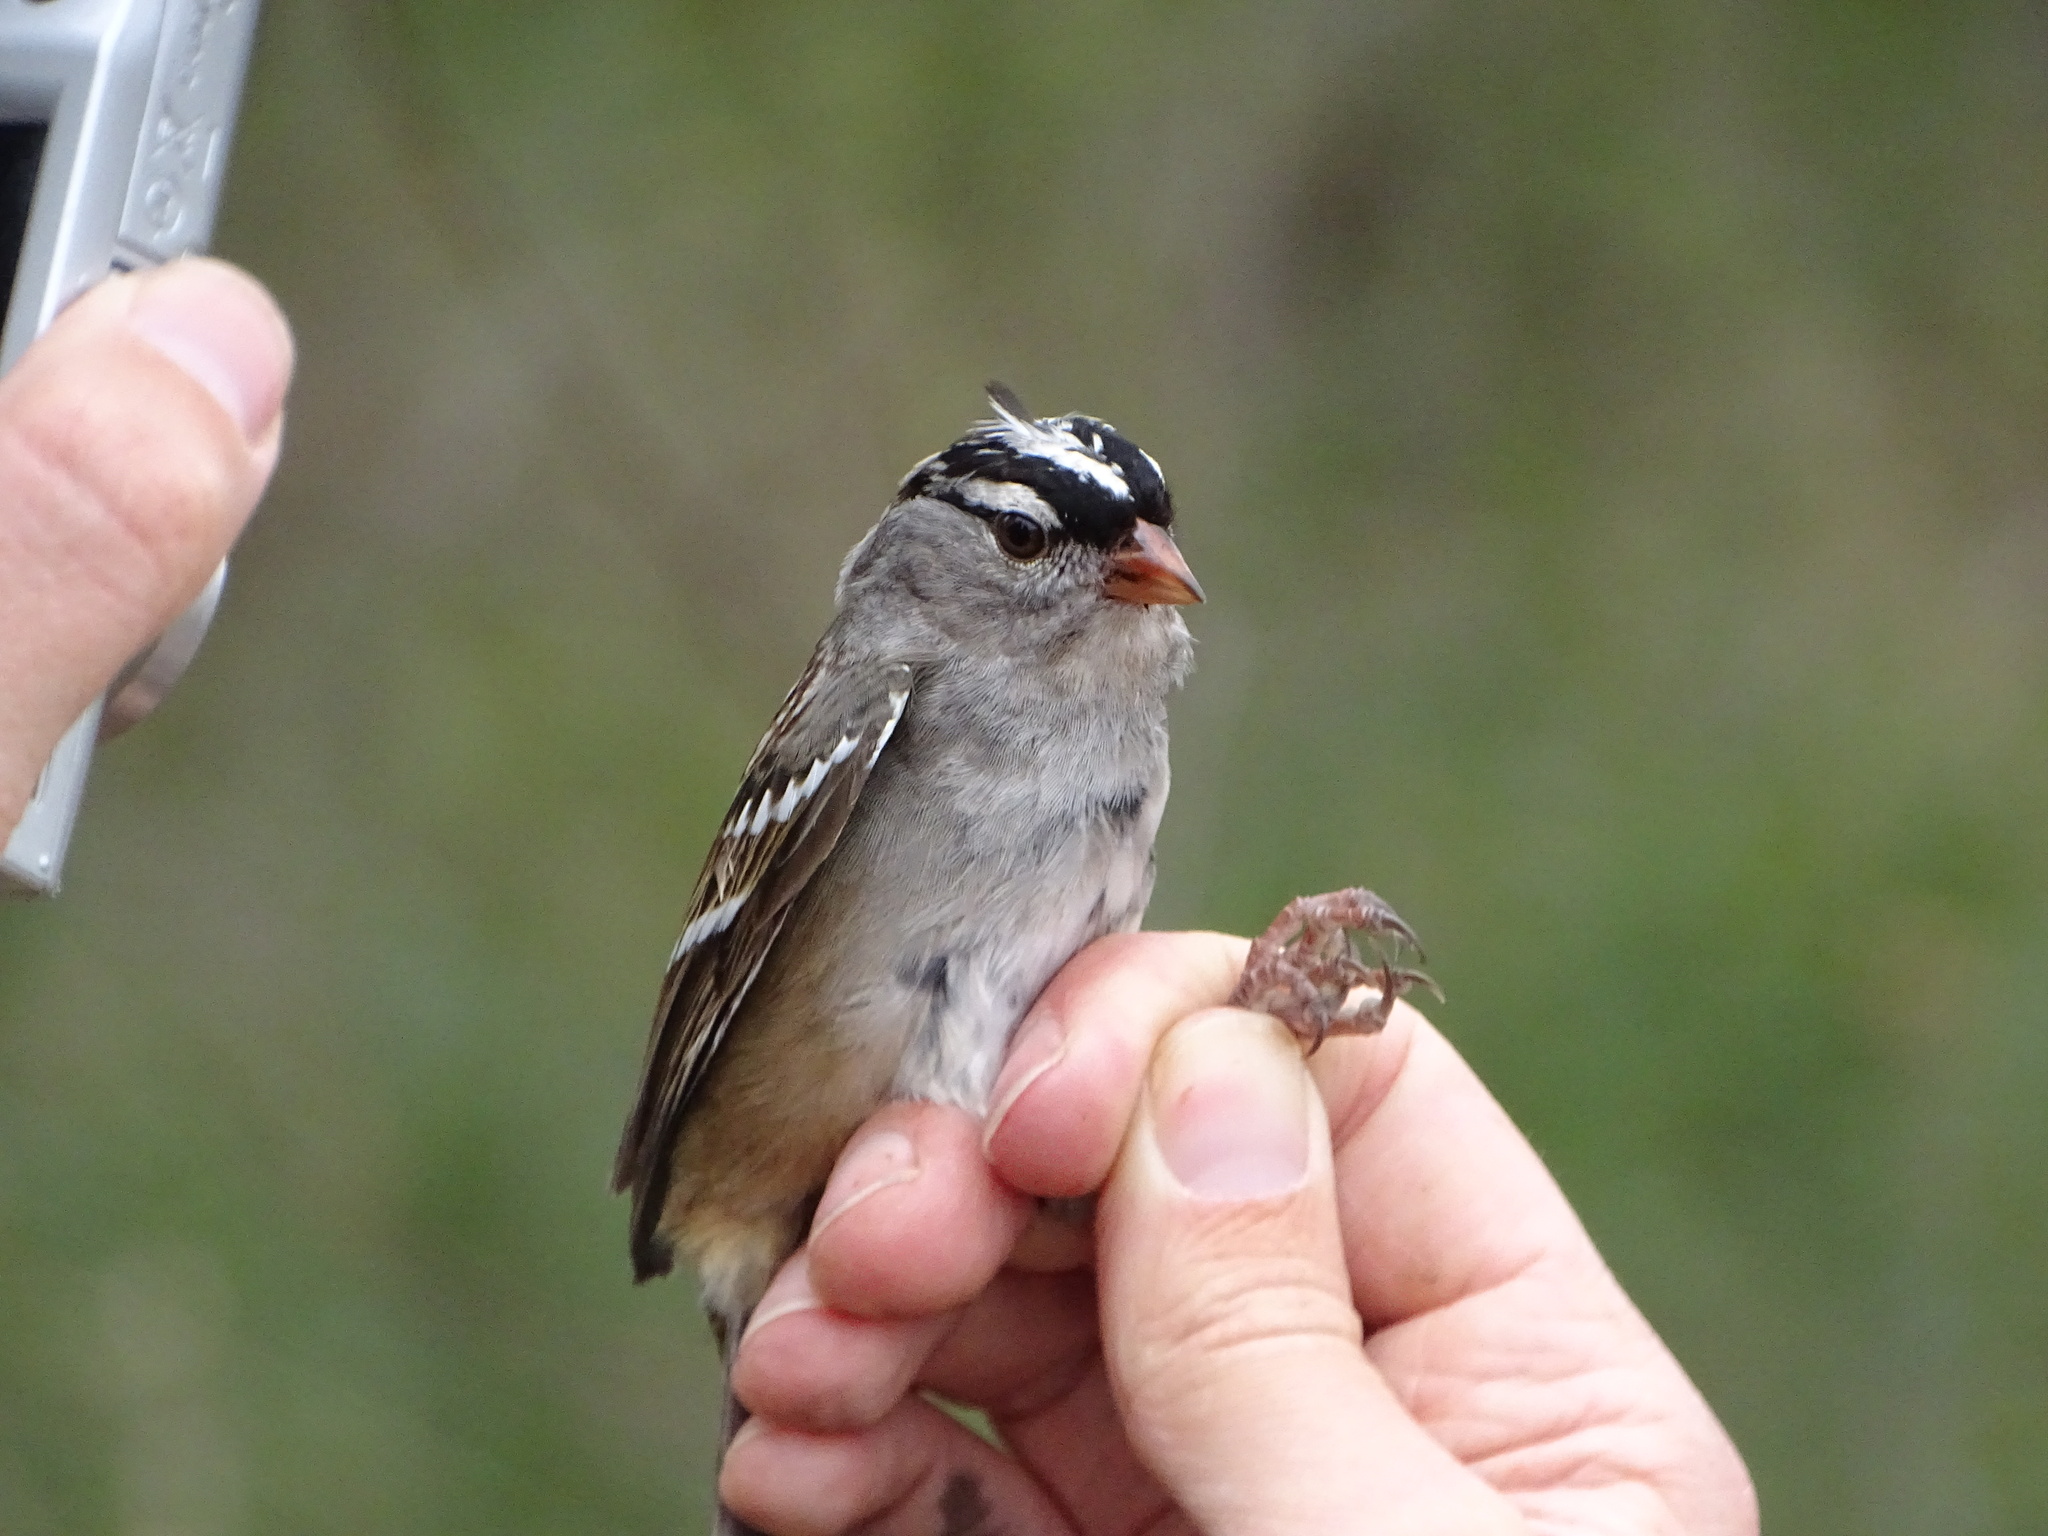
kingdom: Animalia
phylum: Chordata
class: Aves
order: Passeriformes
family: Passerellidae
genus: Zonotrichia
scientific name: Zonotrichia leucophrys
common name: White-crowned sparrow
